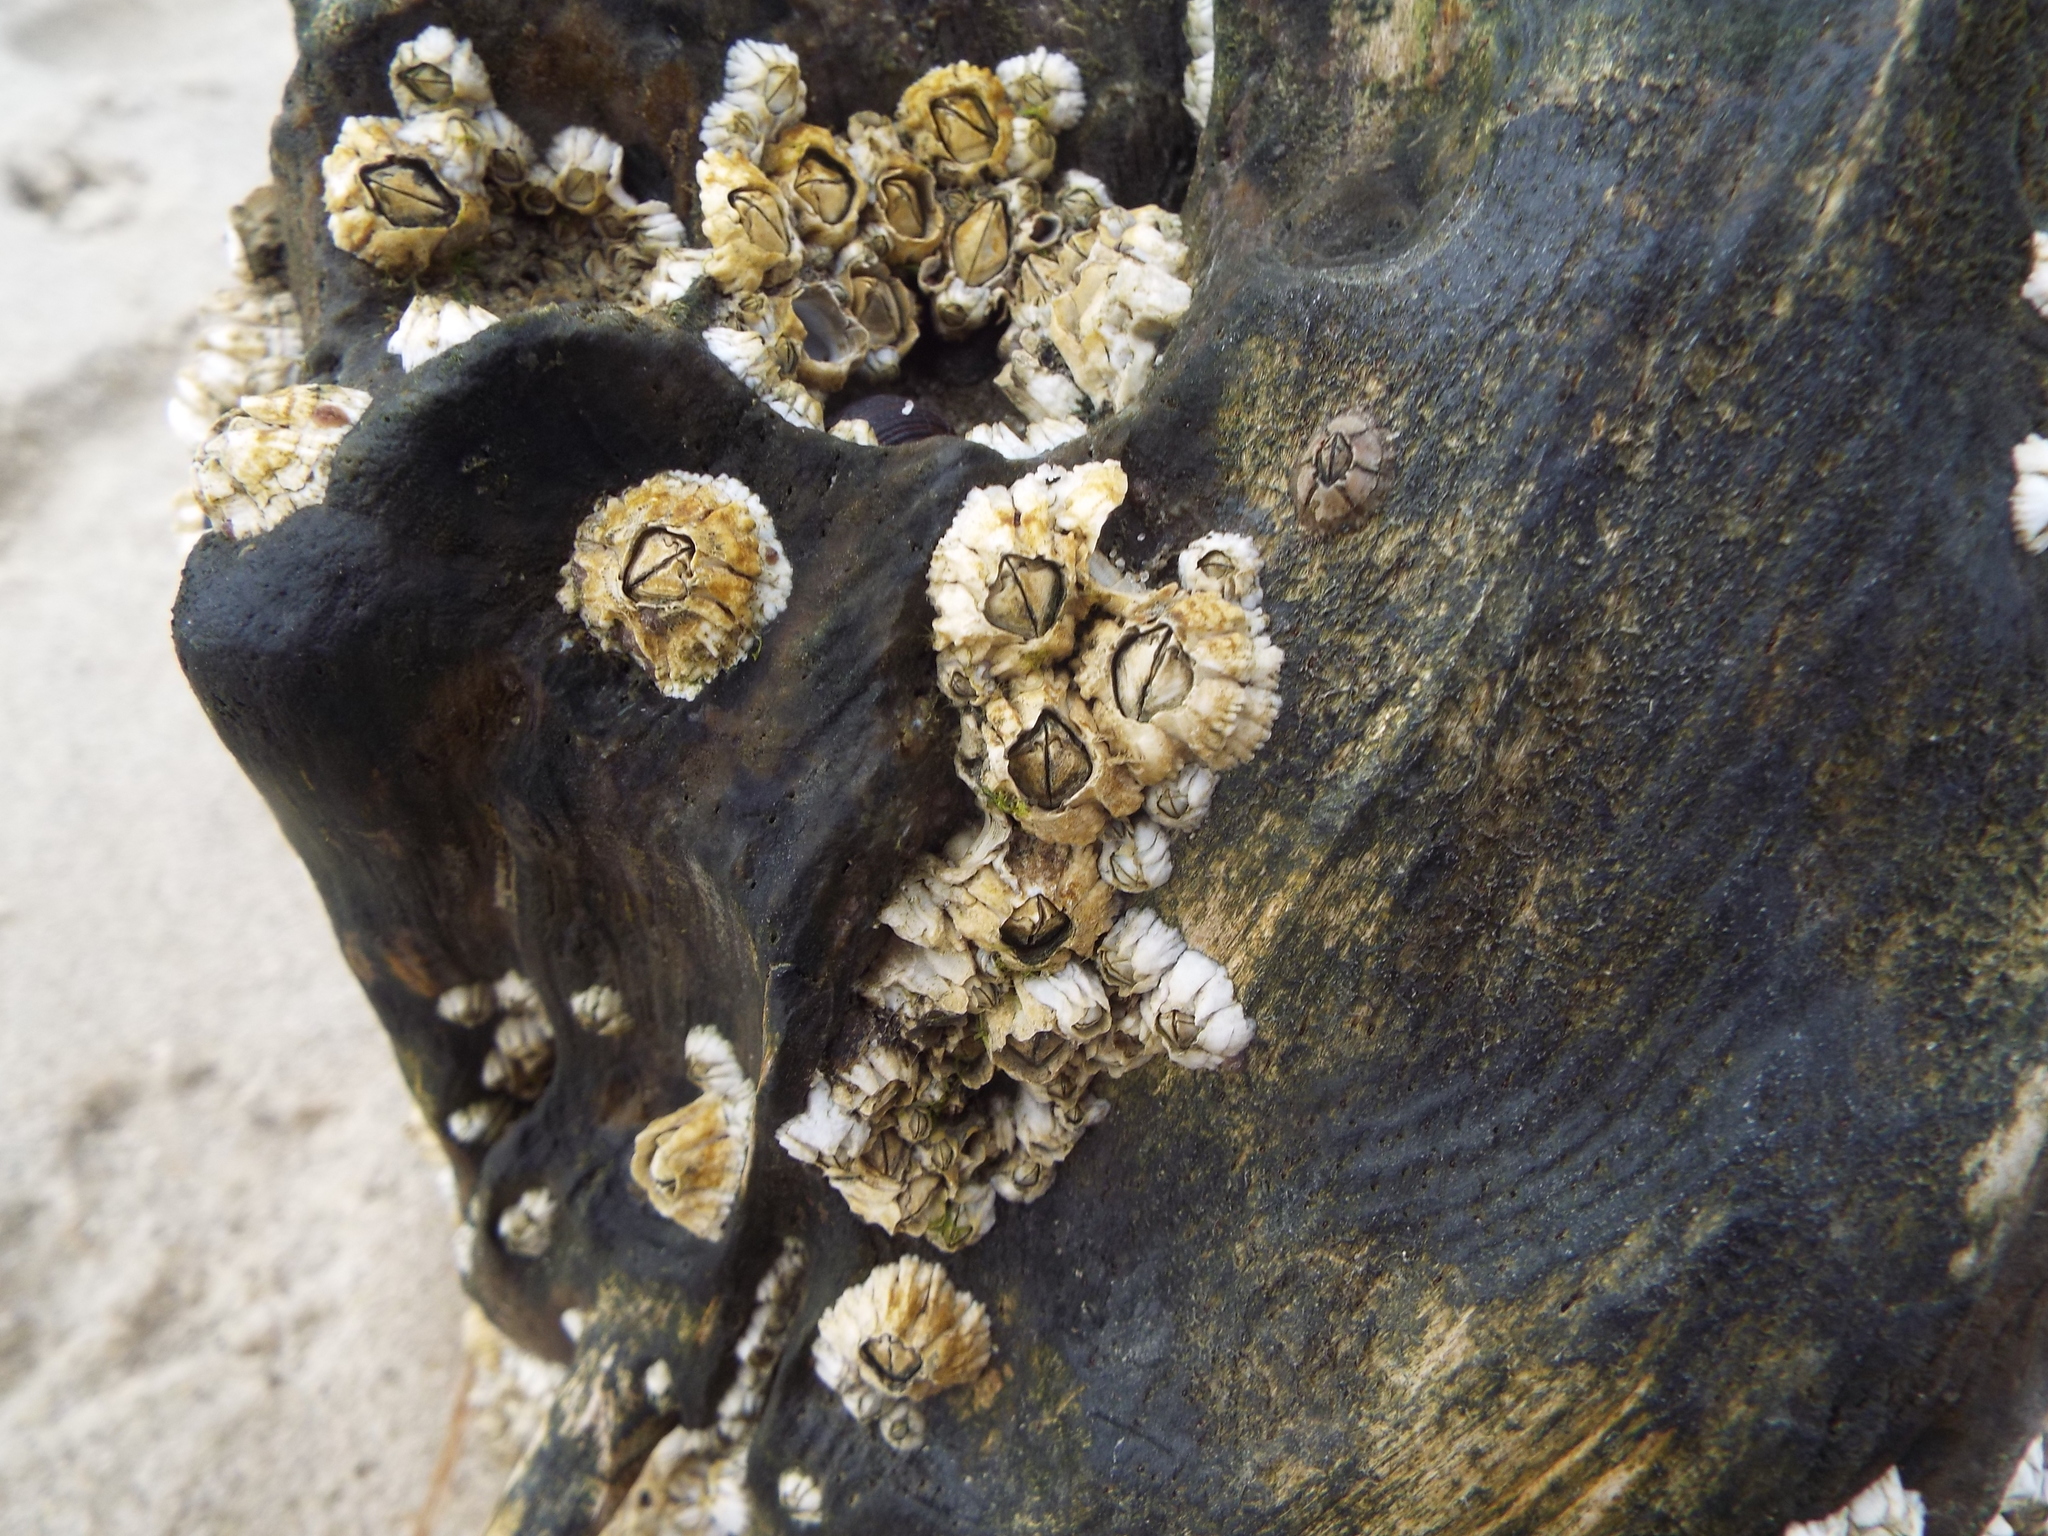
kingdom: Animalia
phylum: Arthropoda
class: Maxillopoda
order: Sessilia
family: Archaeobalanidae
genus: Semibalanus
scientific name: Semibalanus balanoides
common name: Acorn barnacle
